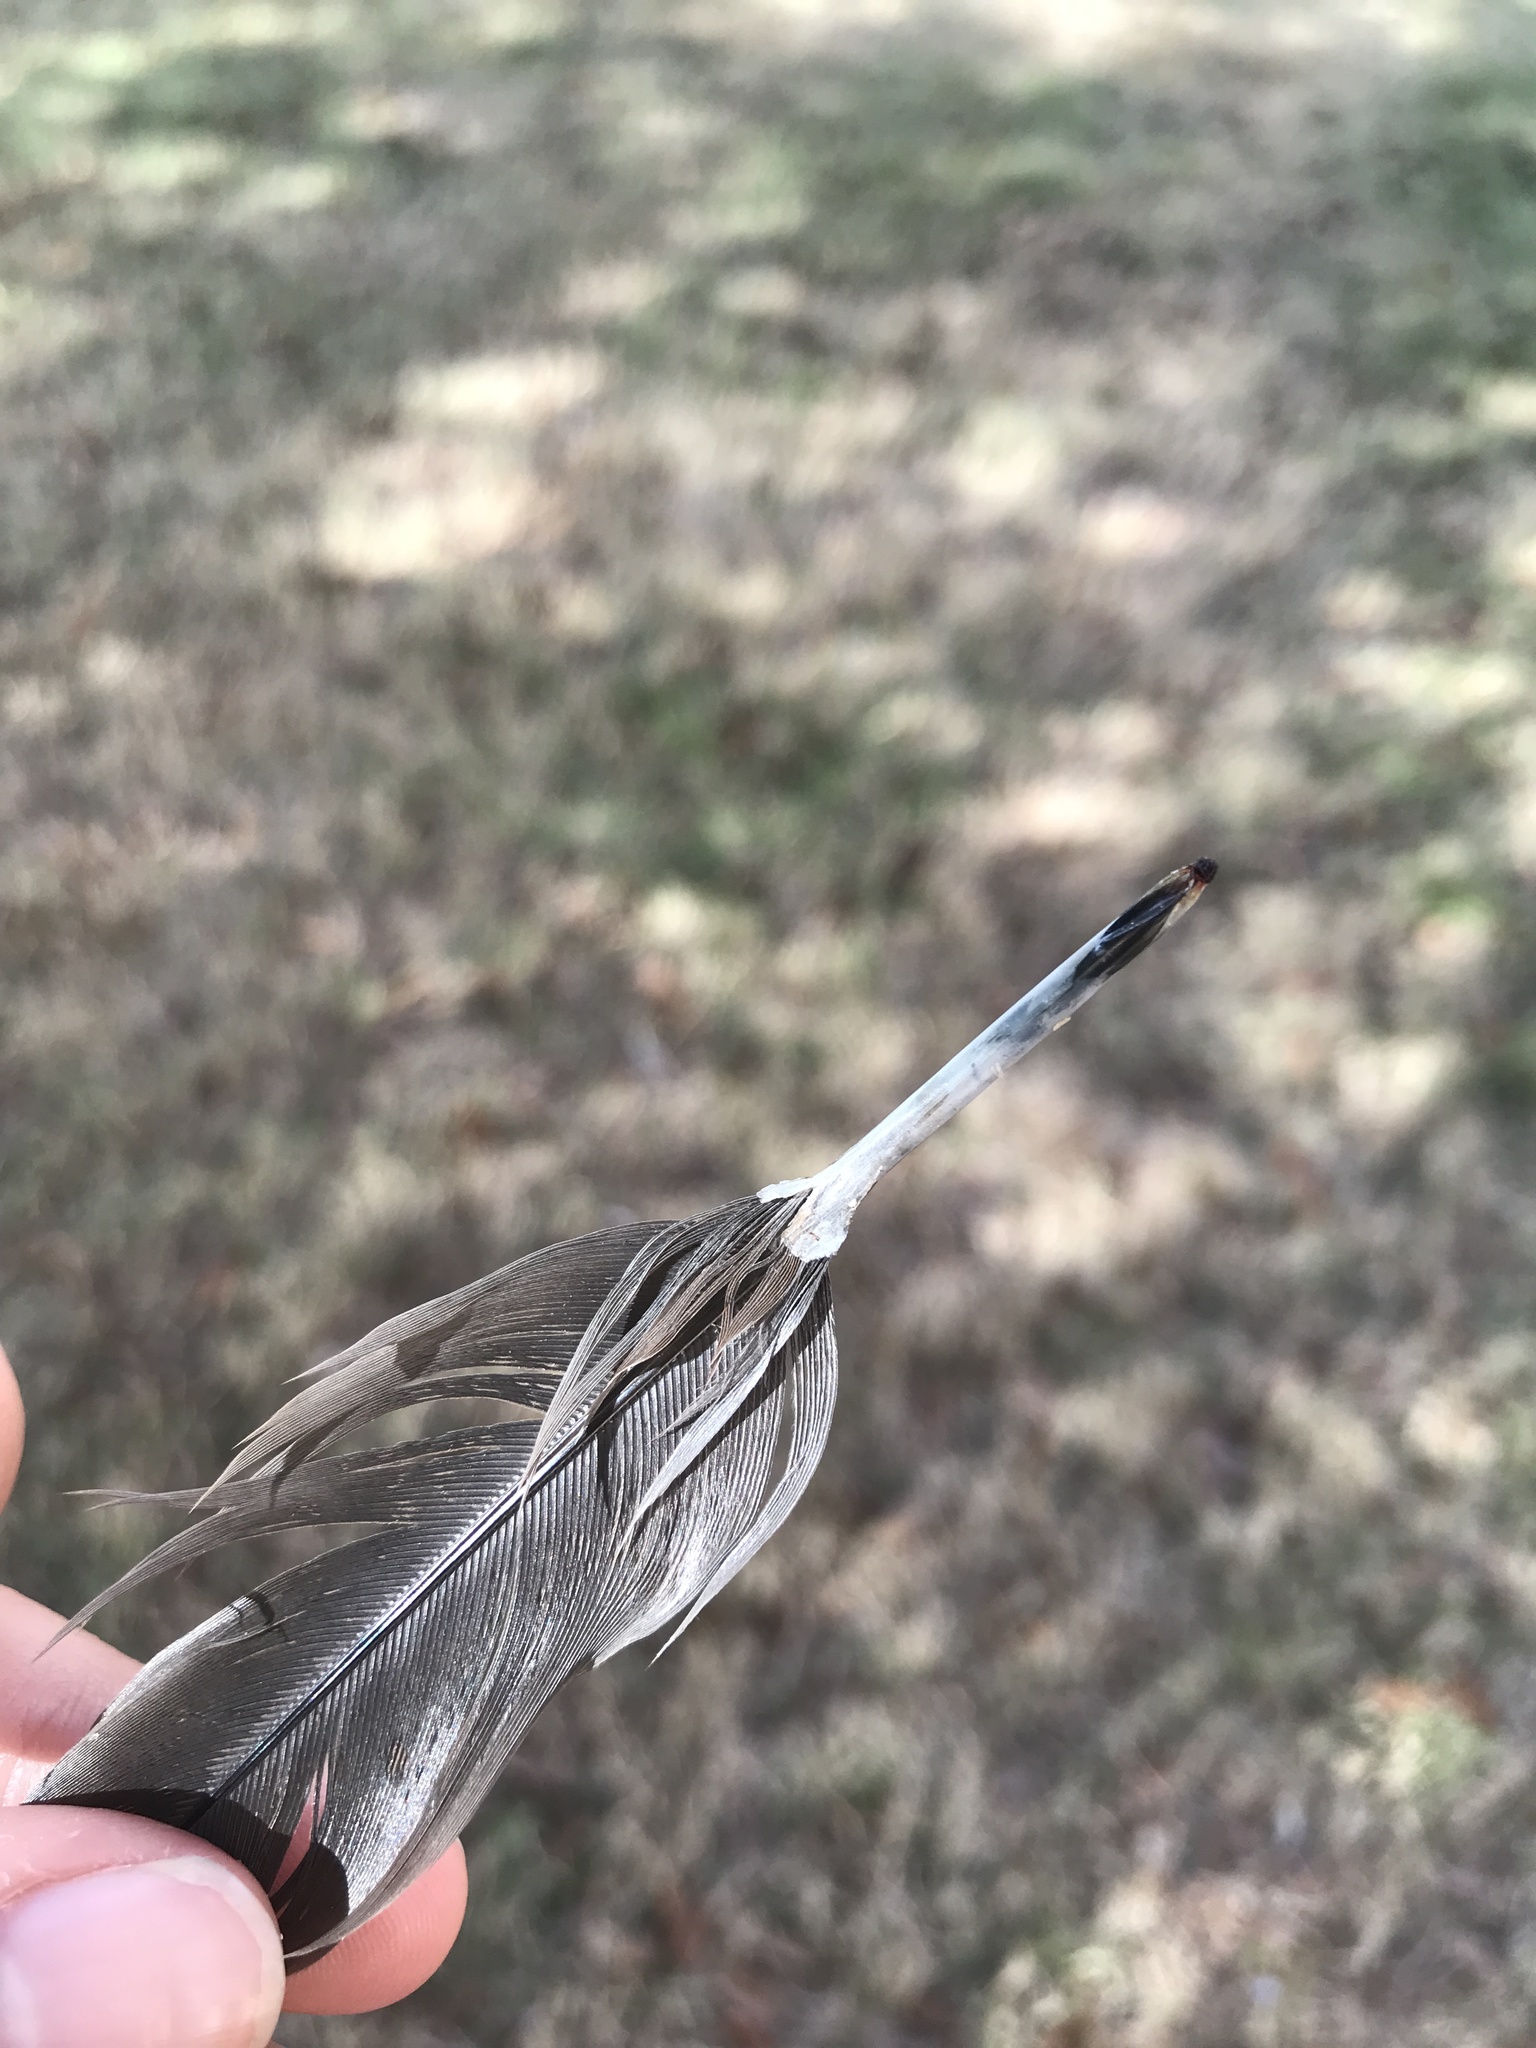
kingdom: Animalia
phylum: Chordata
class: Aves
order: Columbiformes
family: Columbidae
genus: Zenaida
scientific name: Zenaida macroura
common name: Mourning dove
